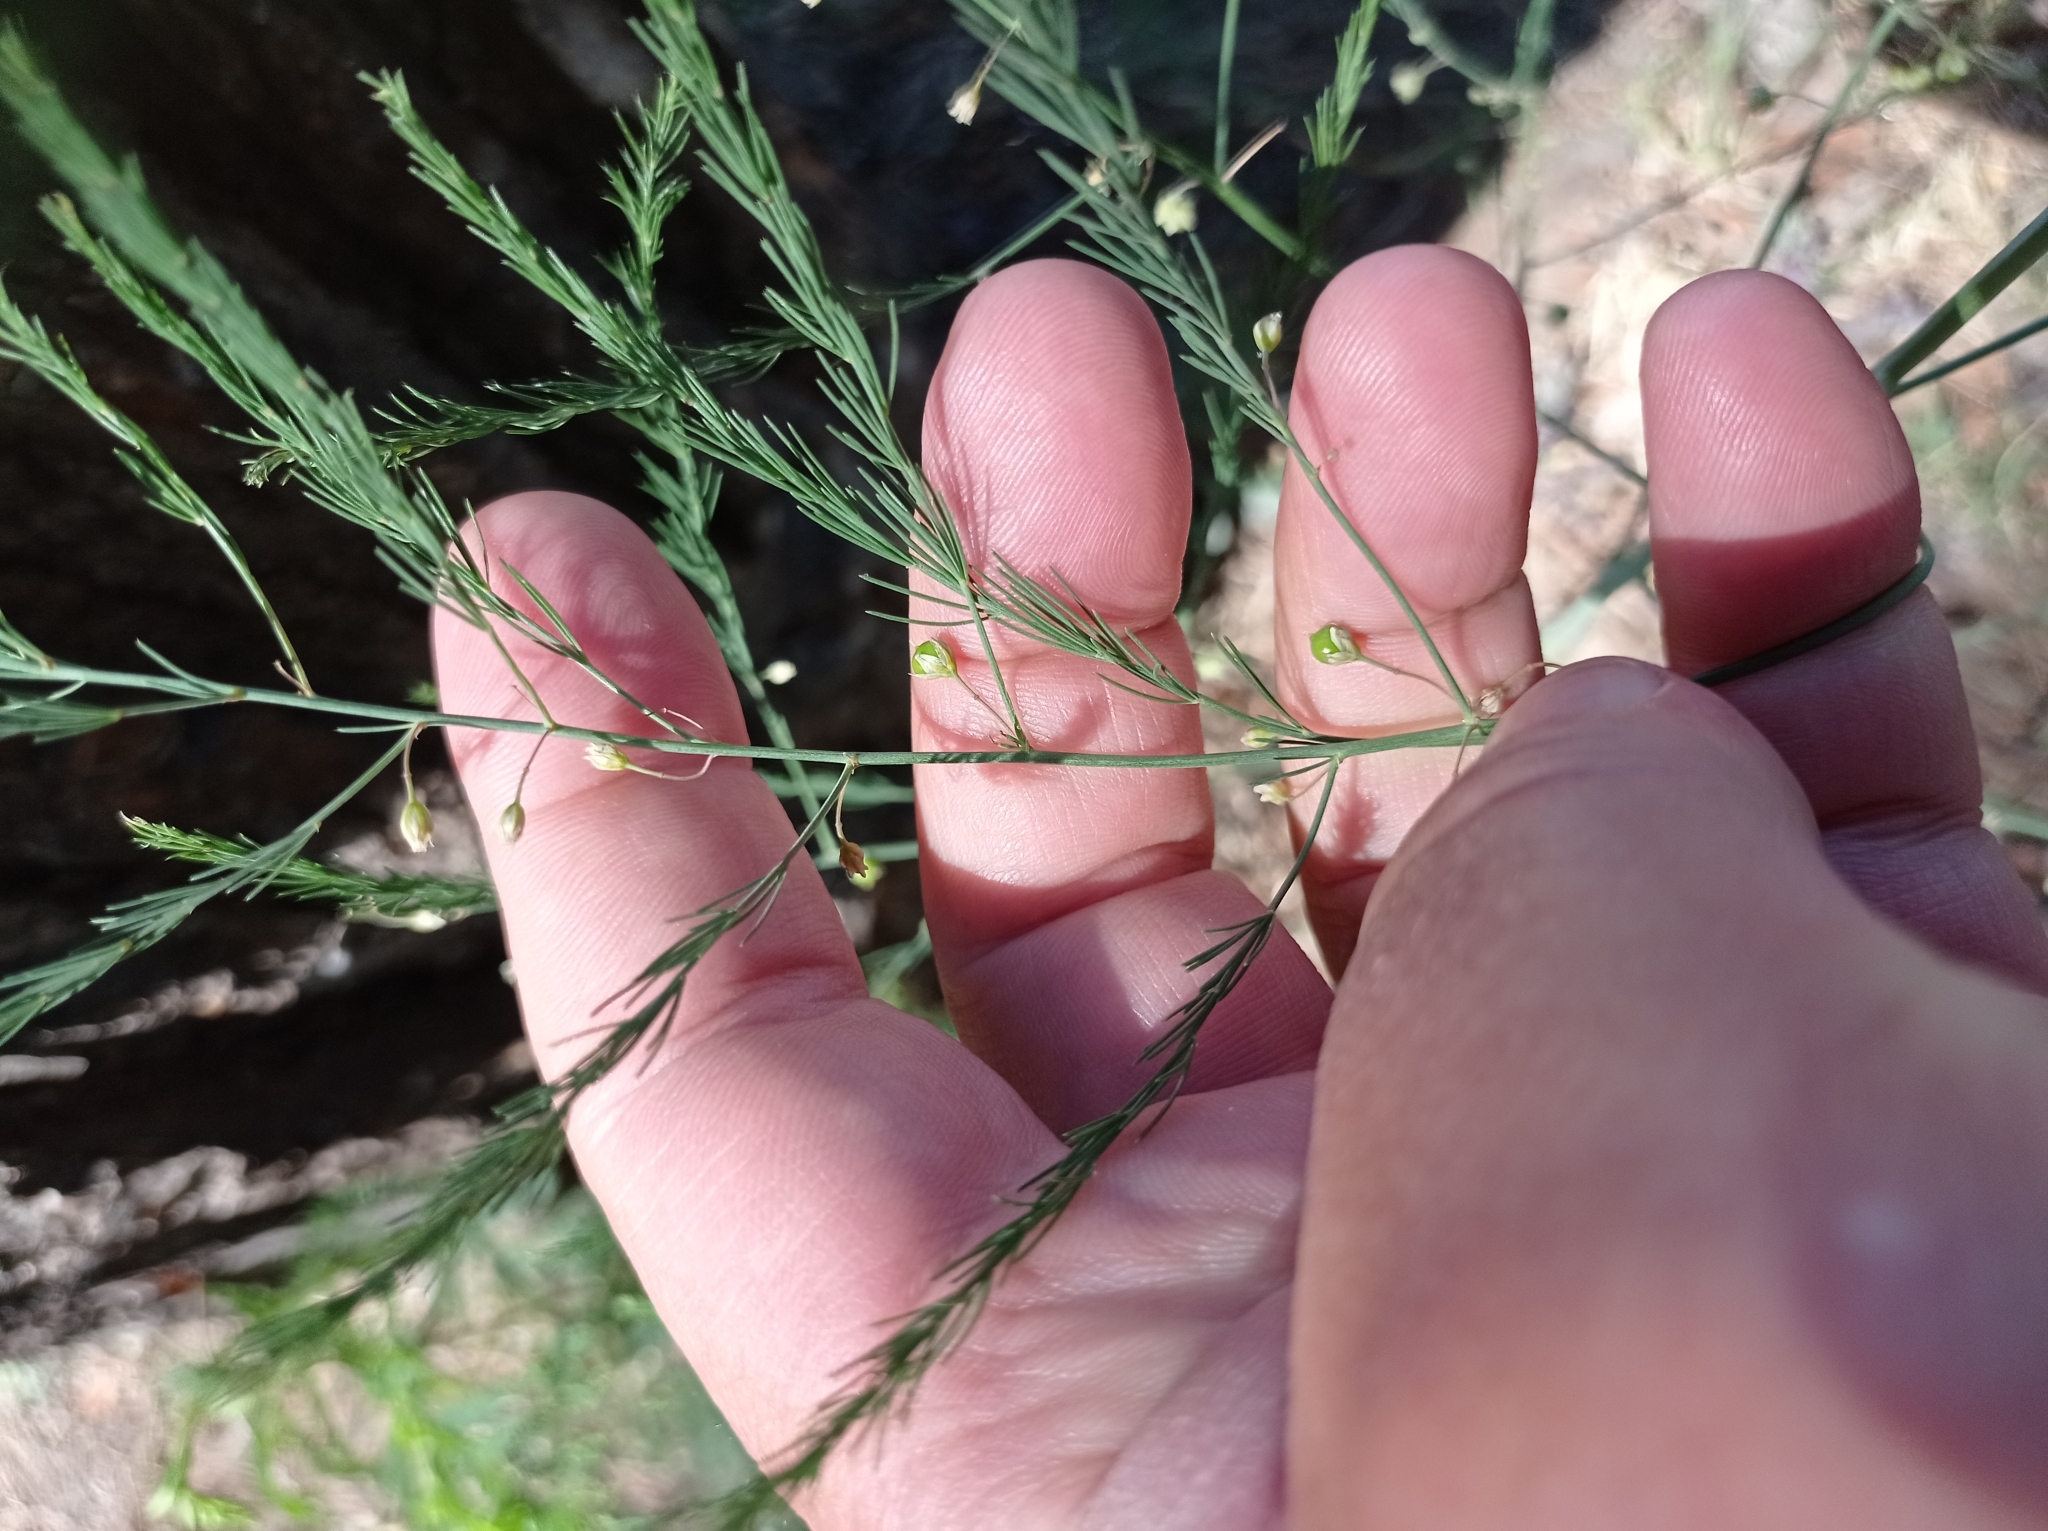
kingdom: Plantae
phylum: Tracheophyta
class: Liliopsida
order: Asparagales
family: Asparagaceae
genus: Asparagus
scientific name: Asparagus officinalis
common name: Garden asparagus
